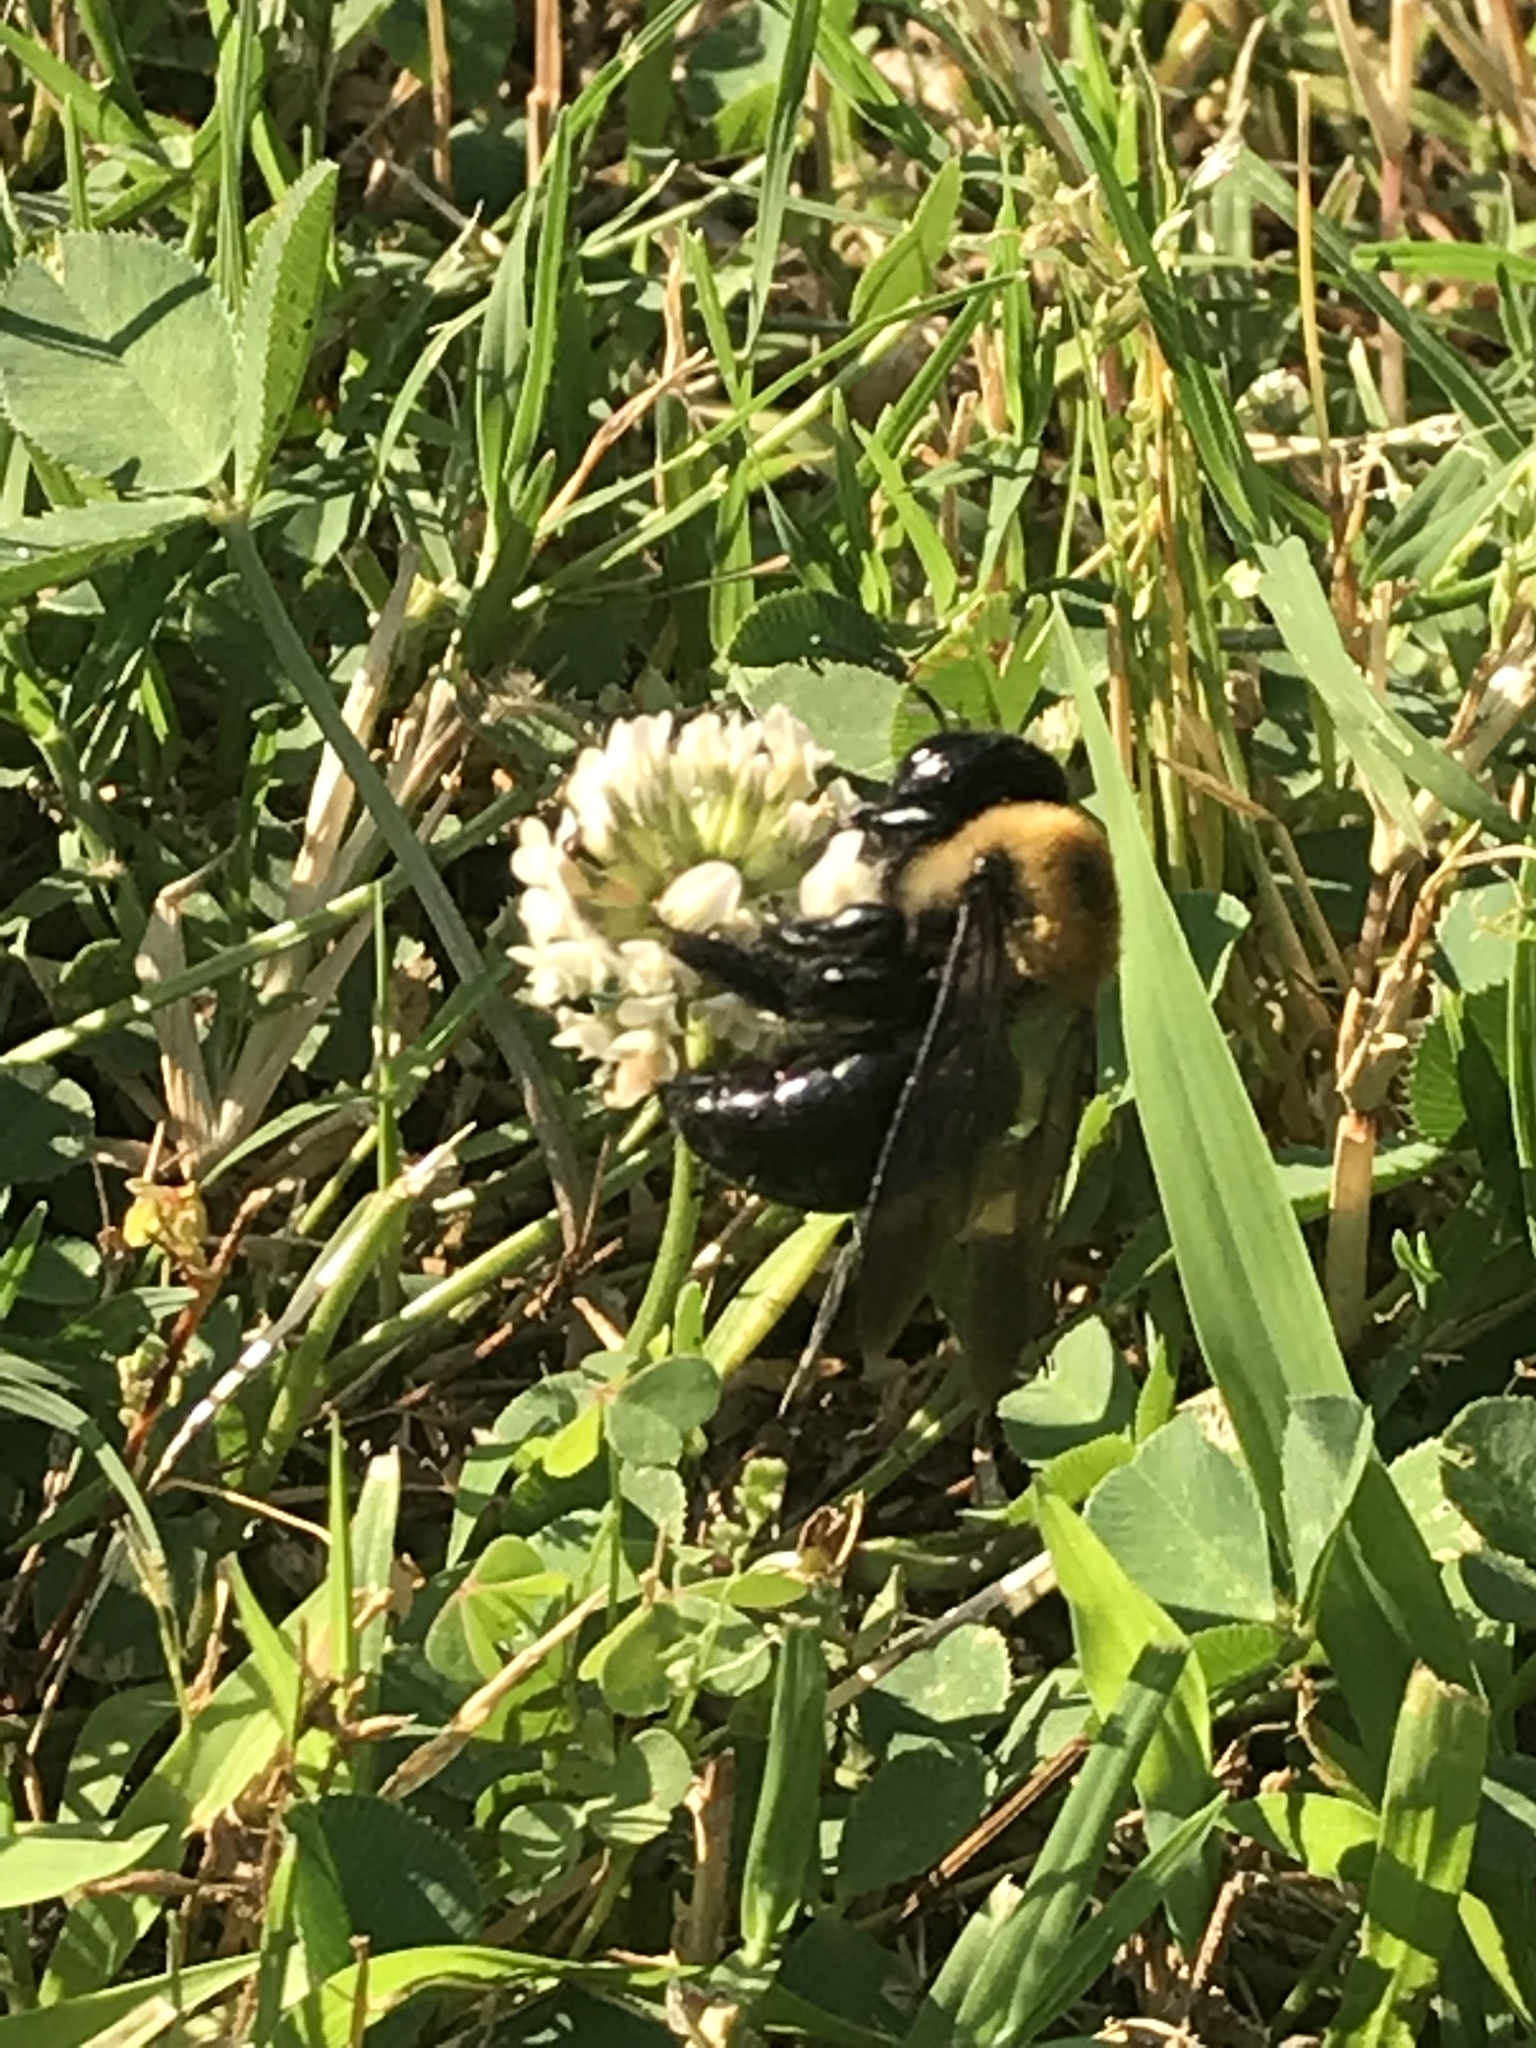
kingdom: Animalia
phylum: Arthropoda
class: Insecta
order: Hymenoptera
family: Apidae
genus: Xylocopa
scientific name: Xylocopa virginica
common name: Carpenter bee
